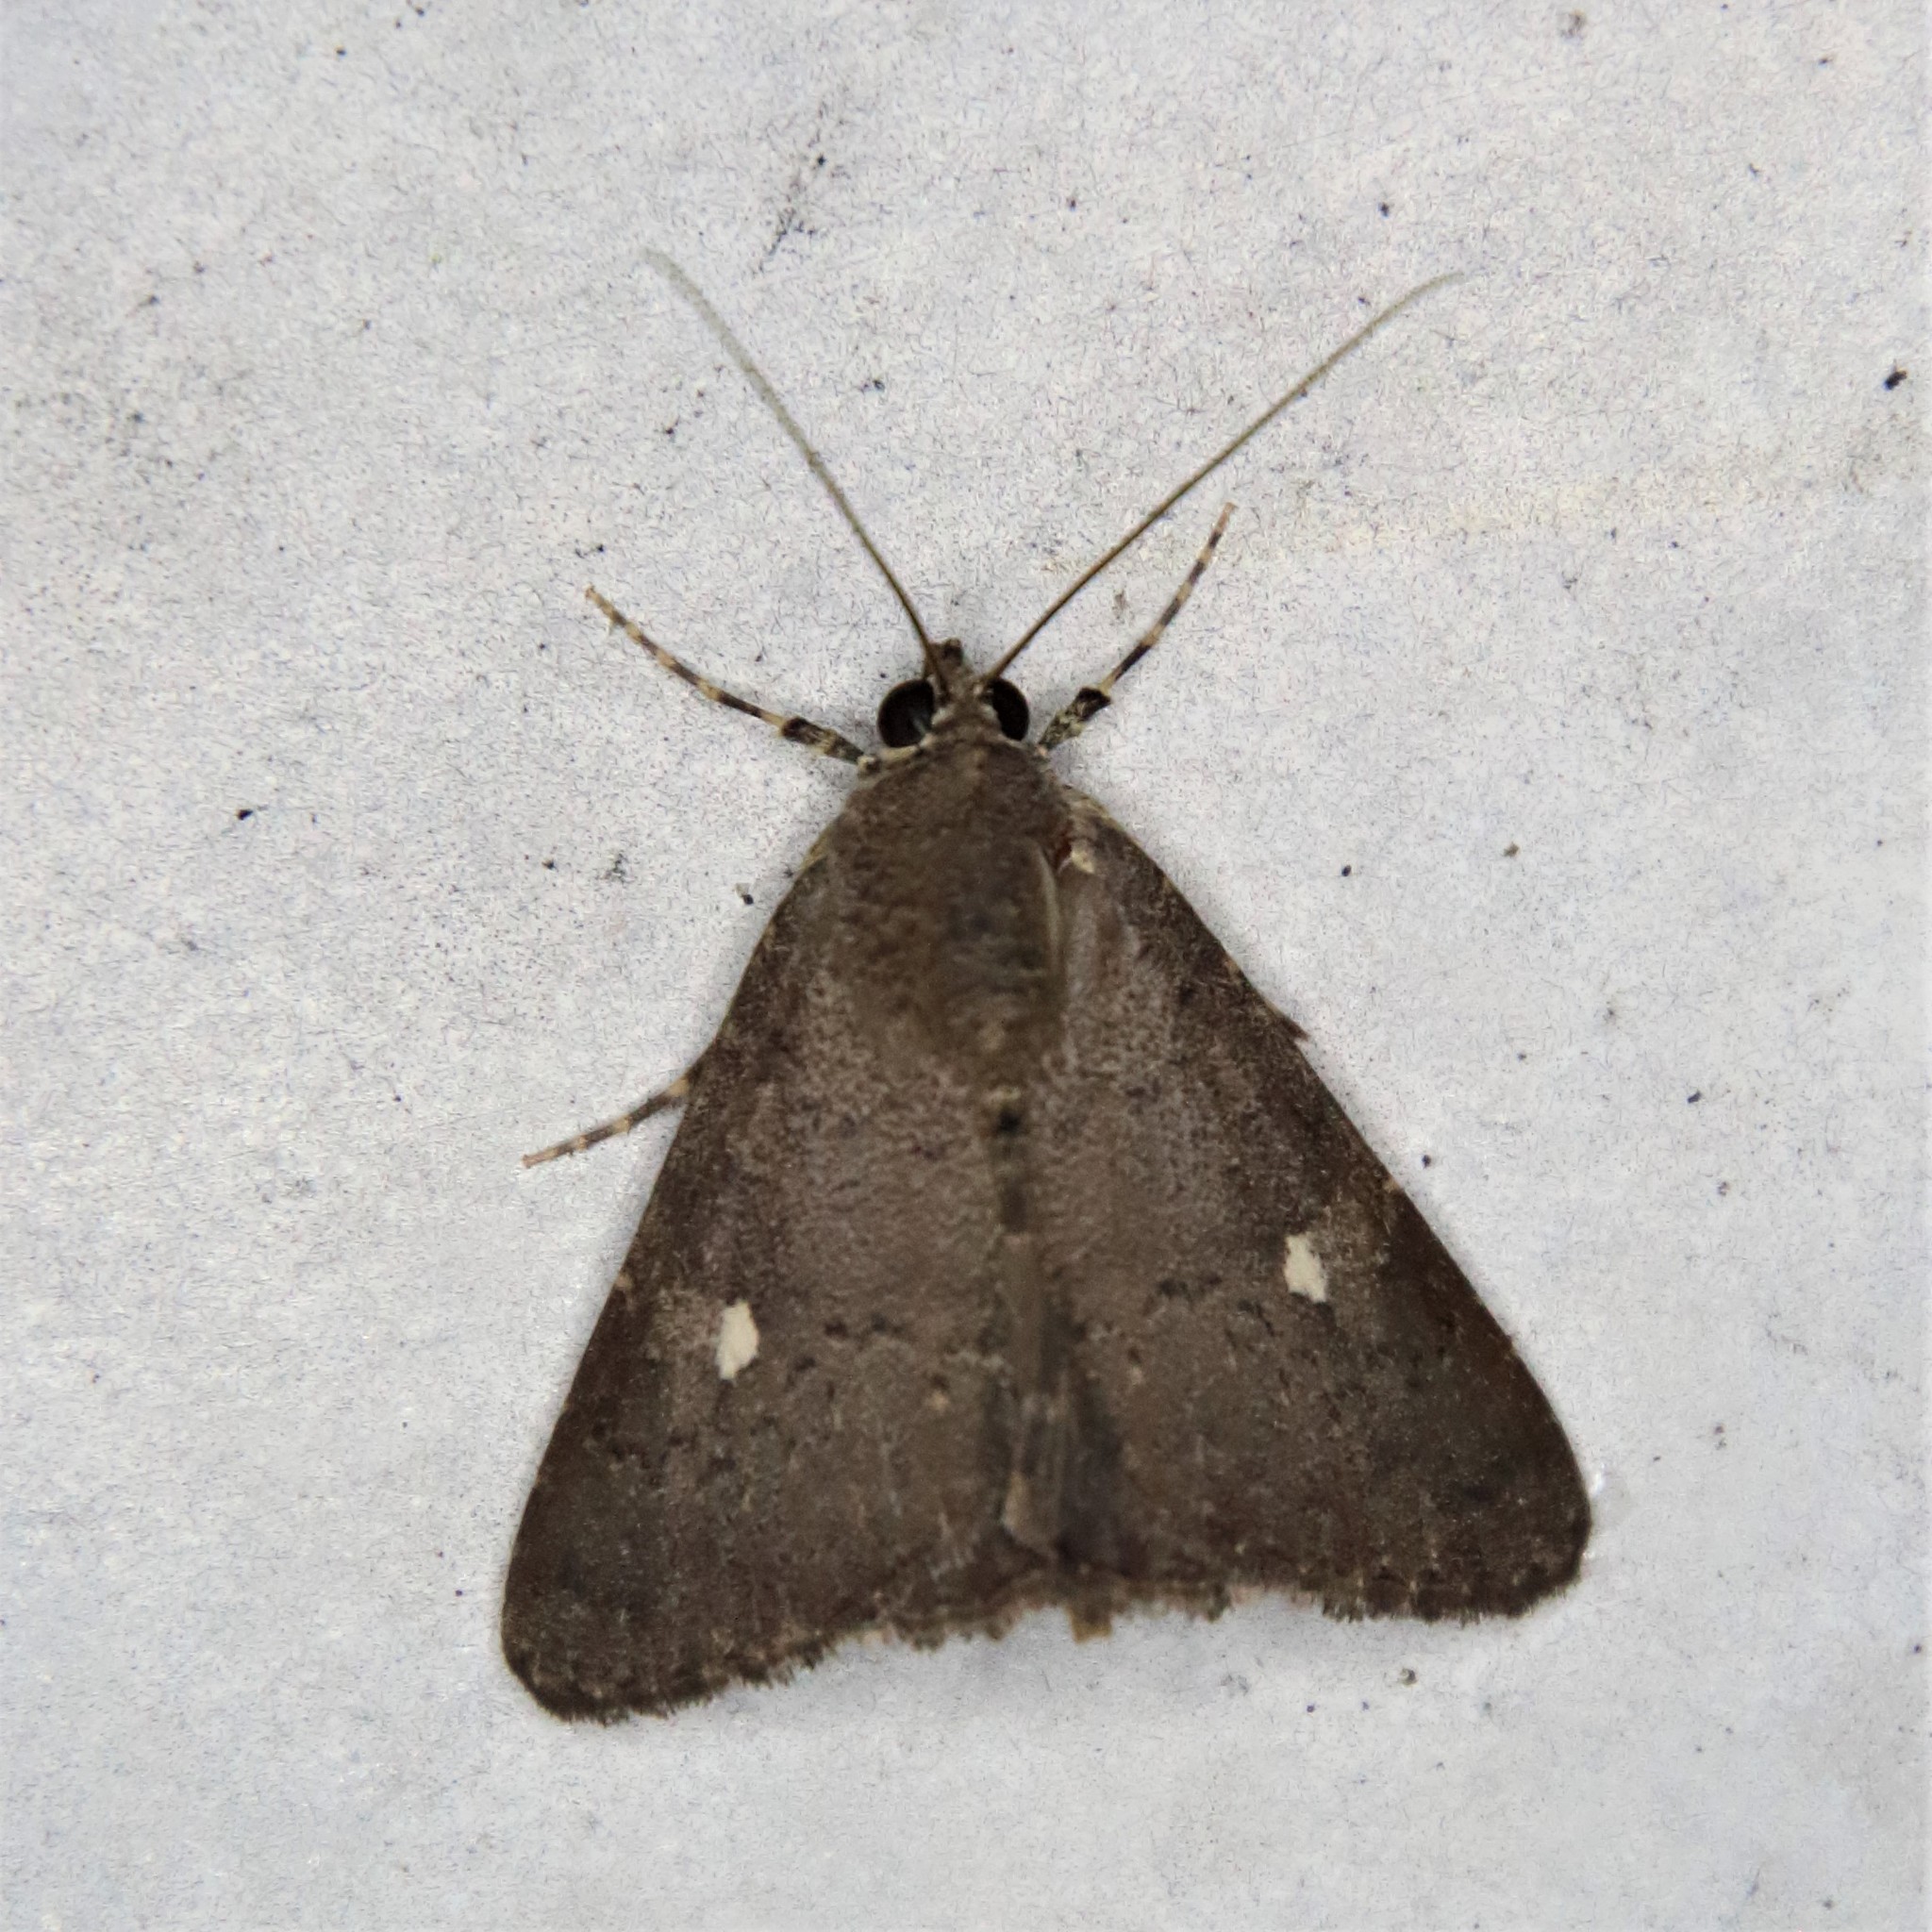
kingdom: Animalia
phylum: Arthropoda
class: Insecta
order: Lepidoptera
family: Noctuidae
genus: Amyna
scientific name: Amyna punctum
